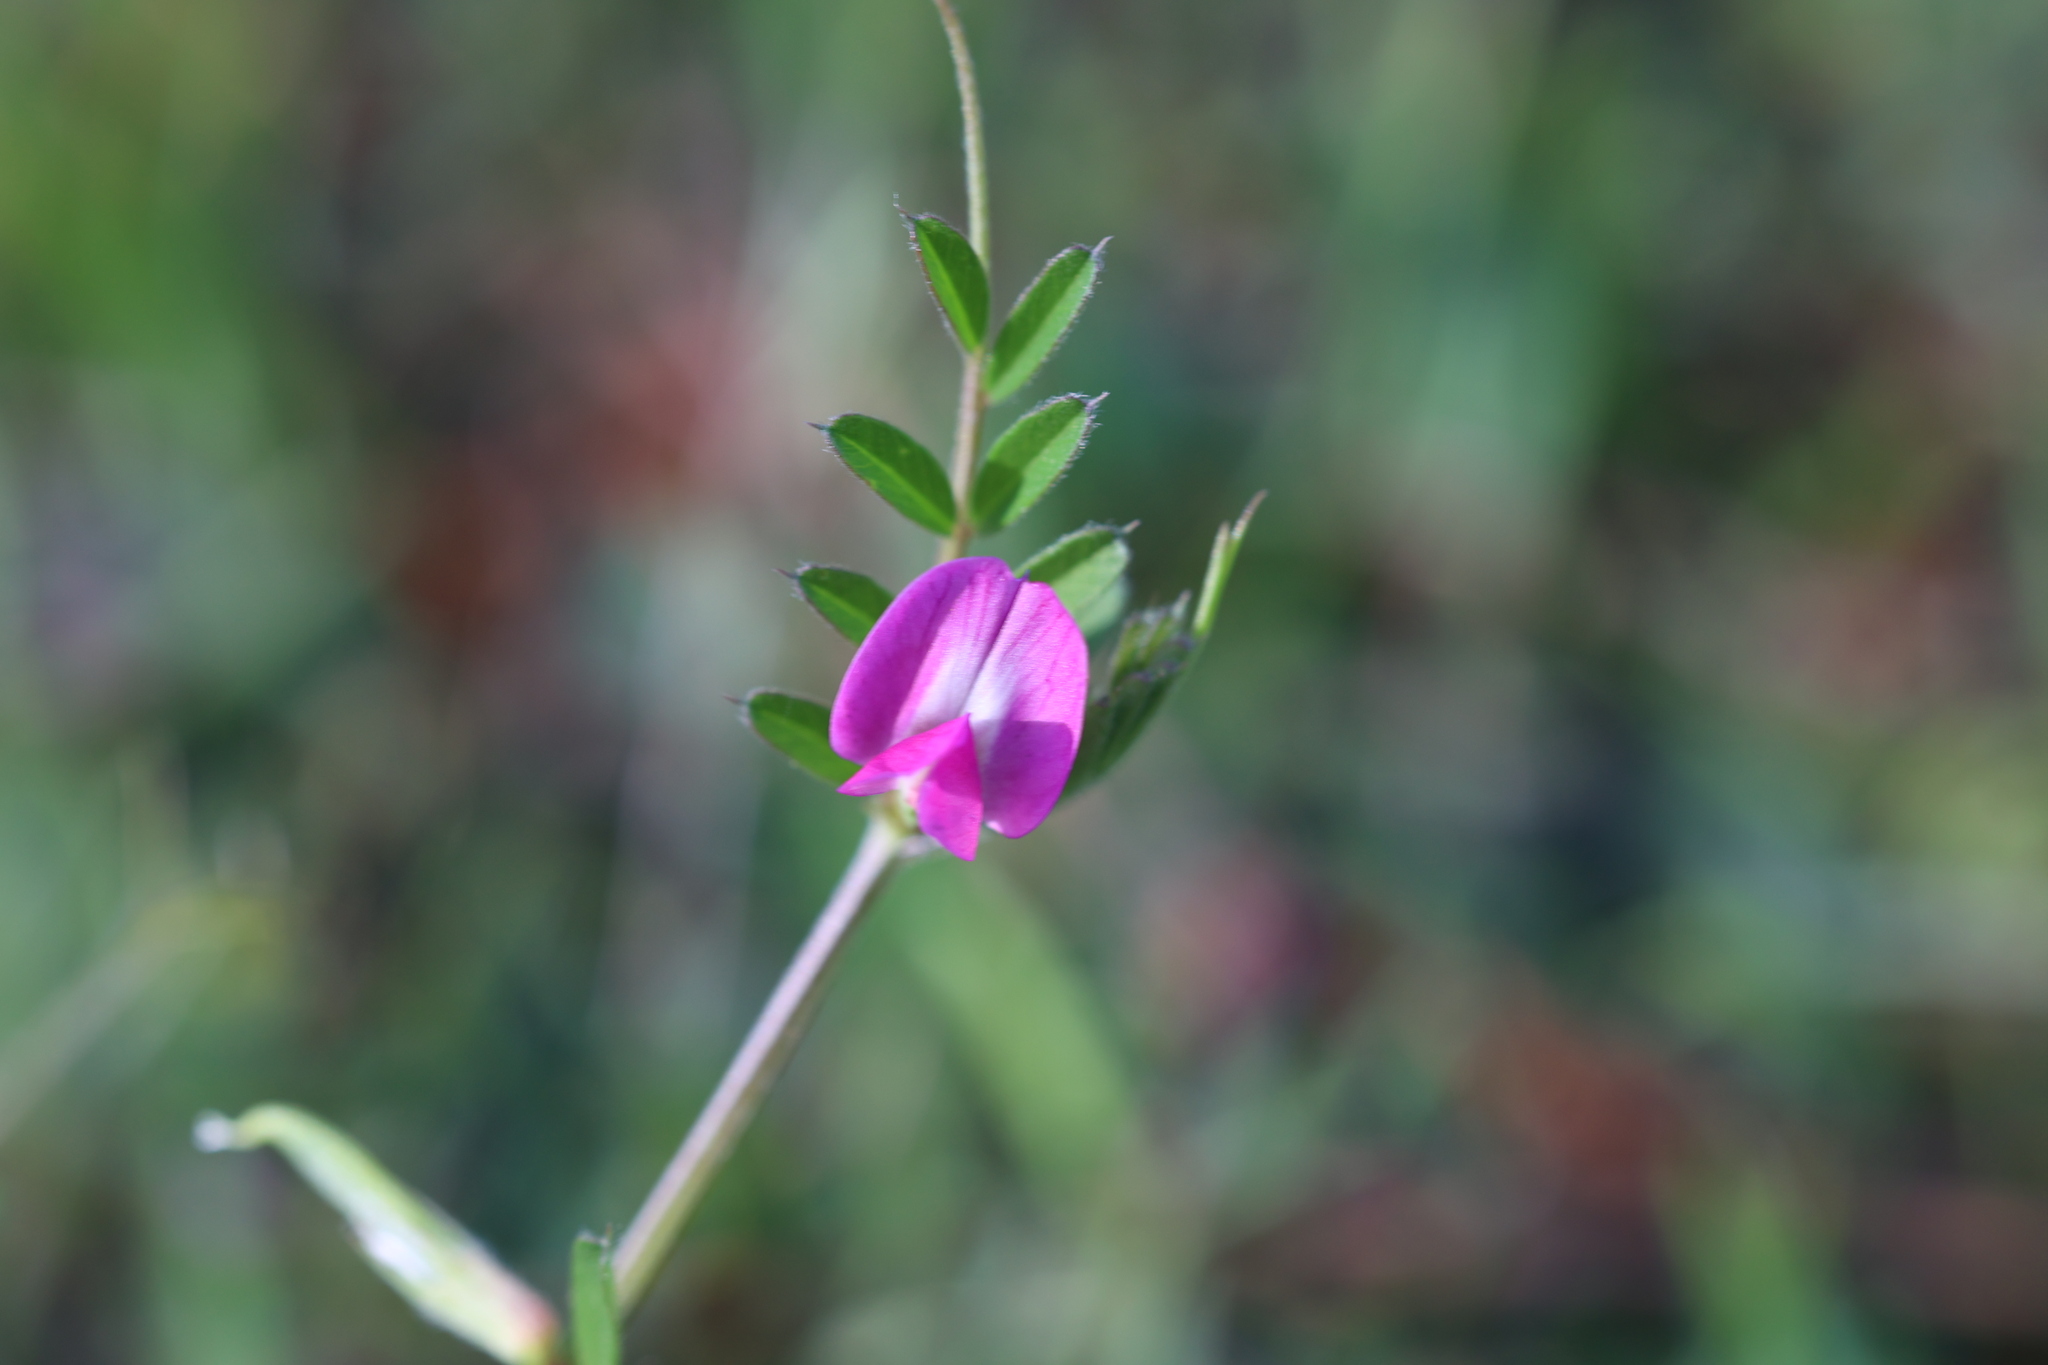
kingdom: Plantae
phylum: Tracheophyta
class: Magnoliopsida
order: Fabales
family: Fabaceae
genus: Vicia
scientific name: Vicia sativa
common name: Garden vetch
